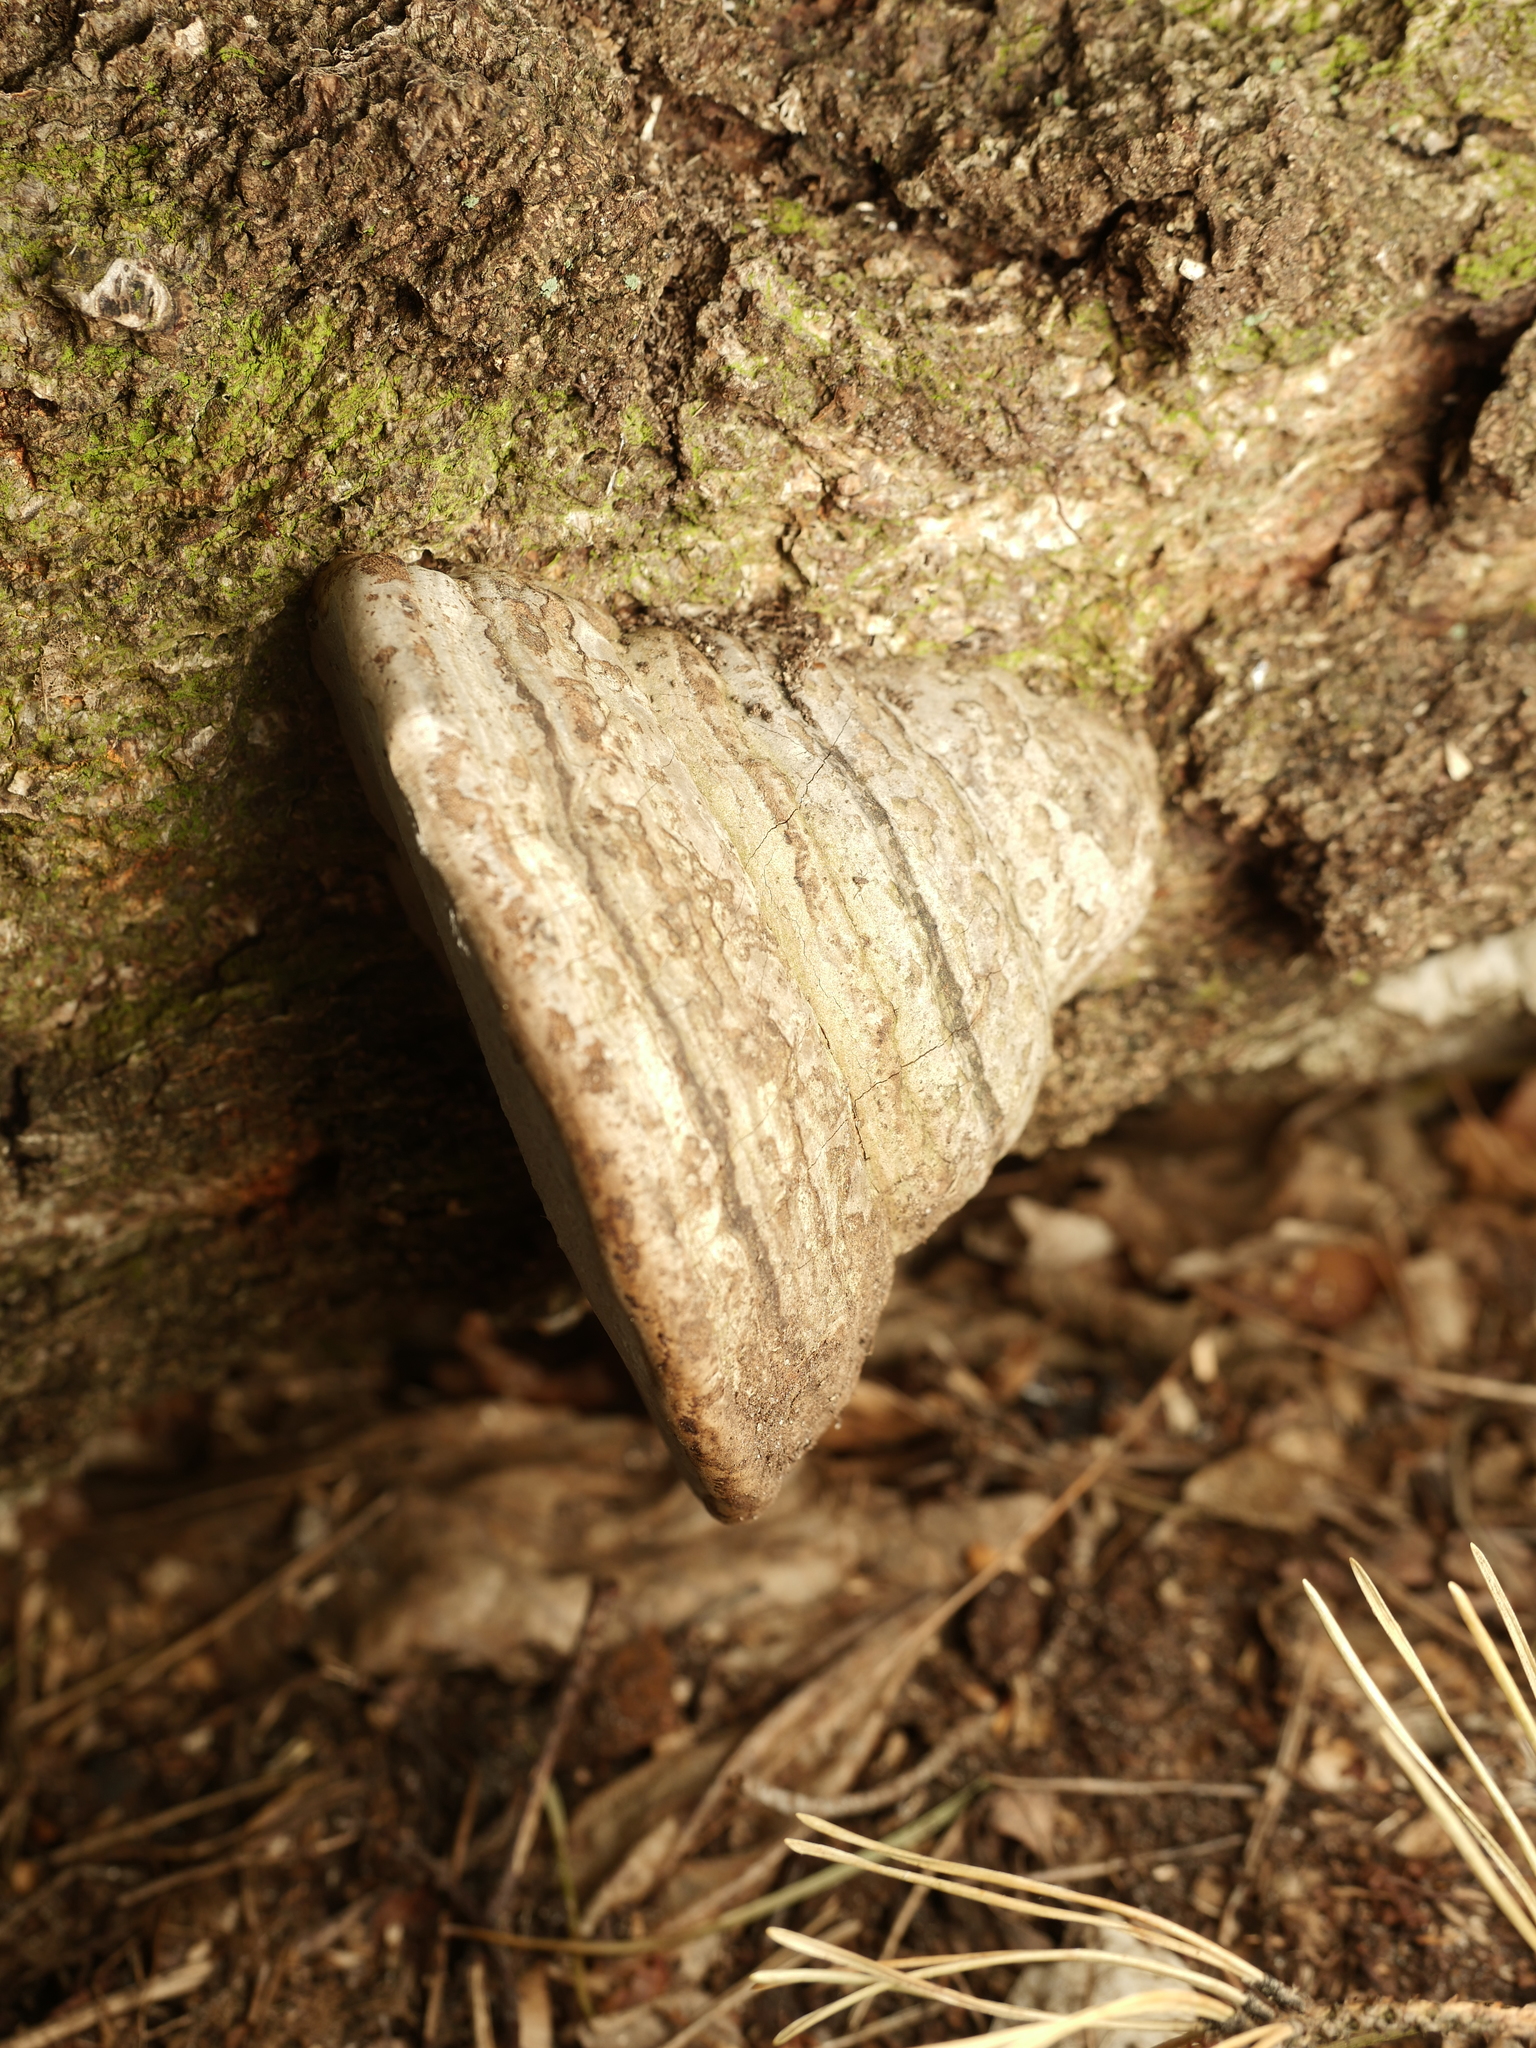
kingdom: Fungi
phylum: Basidiomycota
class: Agaricomycetes
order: Polyporales
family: Polyporaceae
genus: Fomes
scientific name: Fomes fomentarius
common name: Hoof fungus
